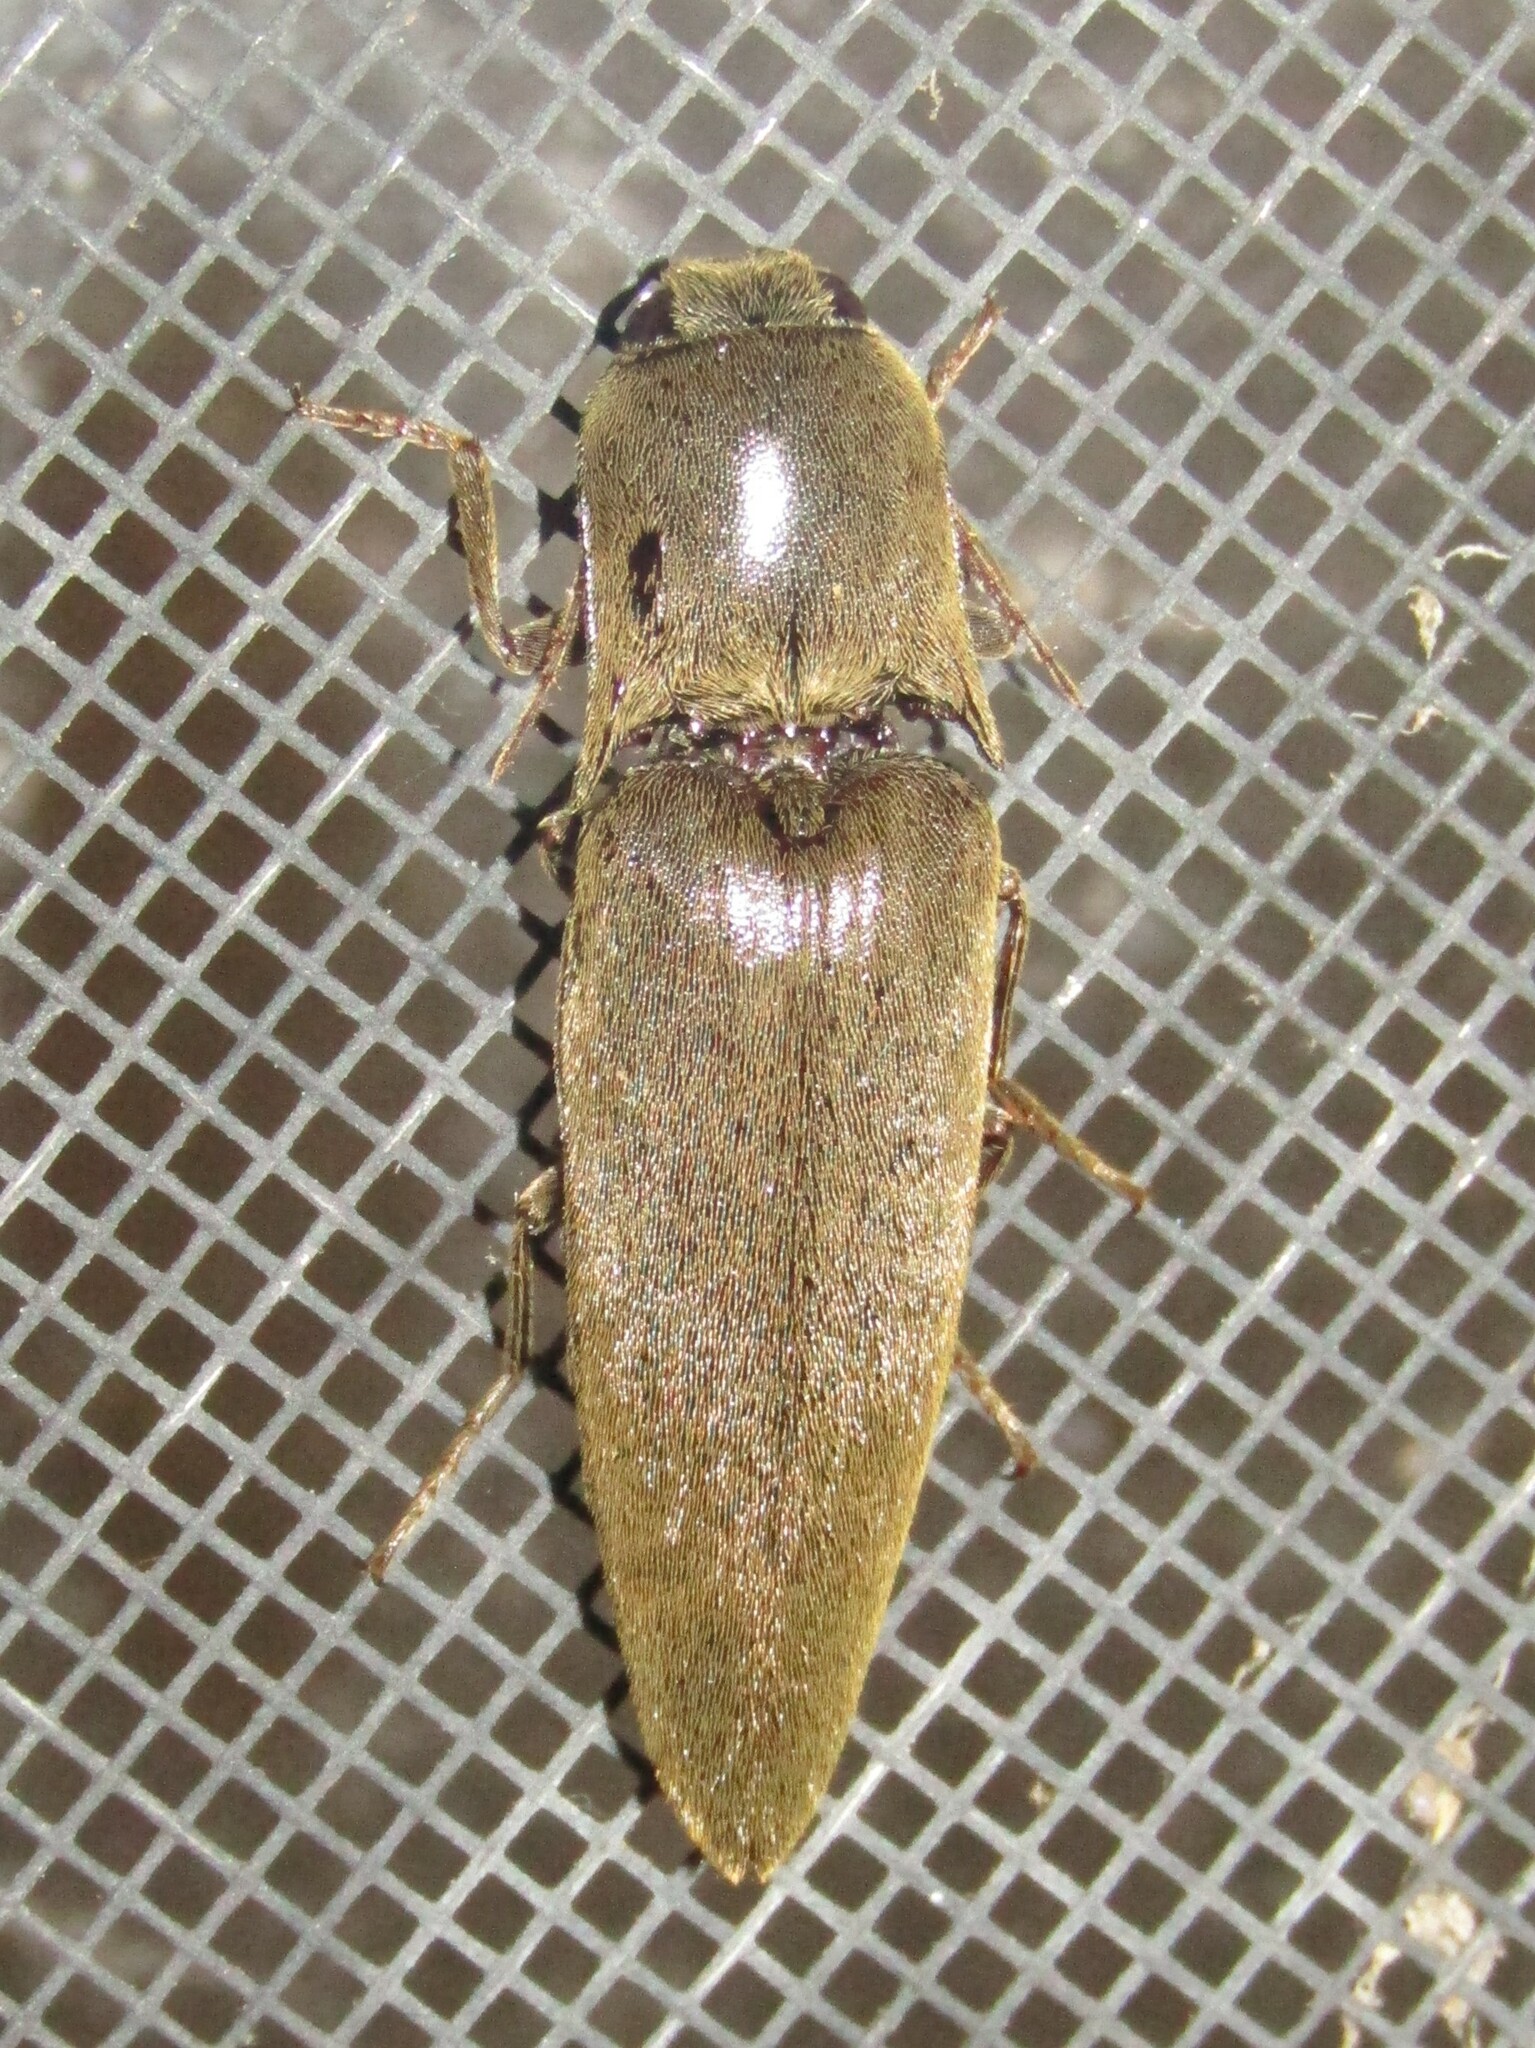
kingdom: Animalia
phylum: Arthropoda
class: Insecta
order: Coleoptera
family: Elateridae
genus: Orthostethus
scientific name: Orthostethus infuscatus
